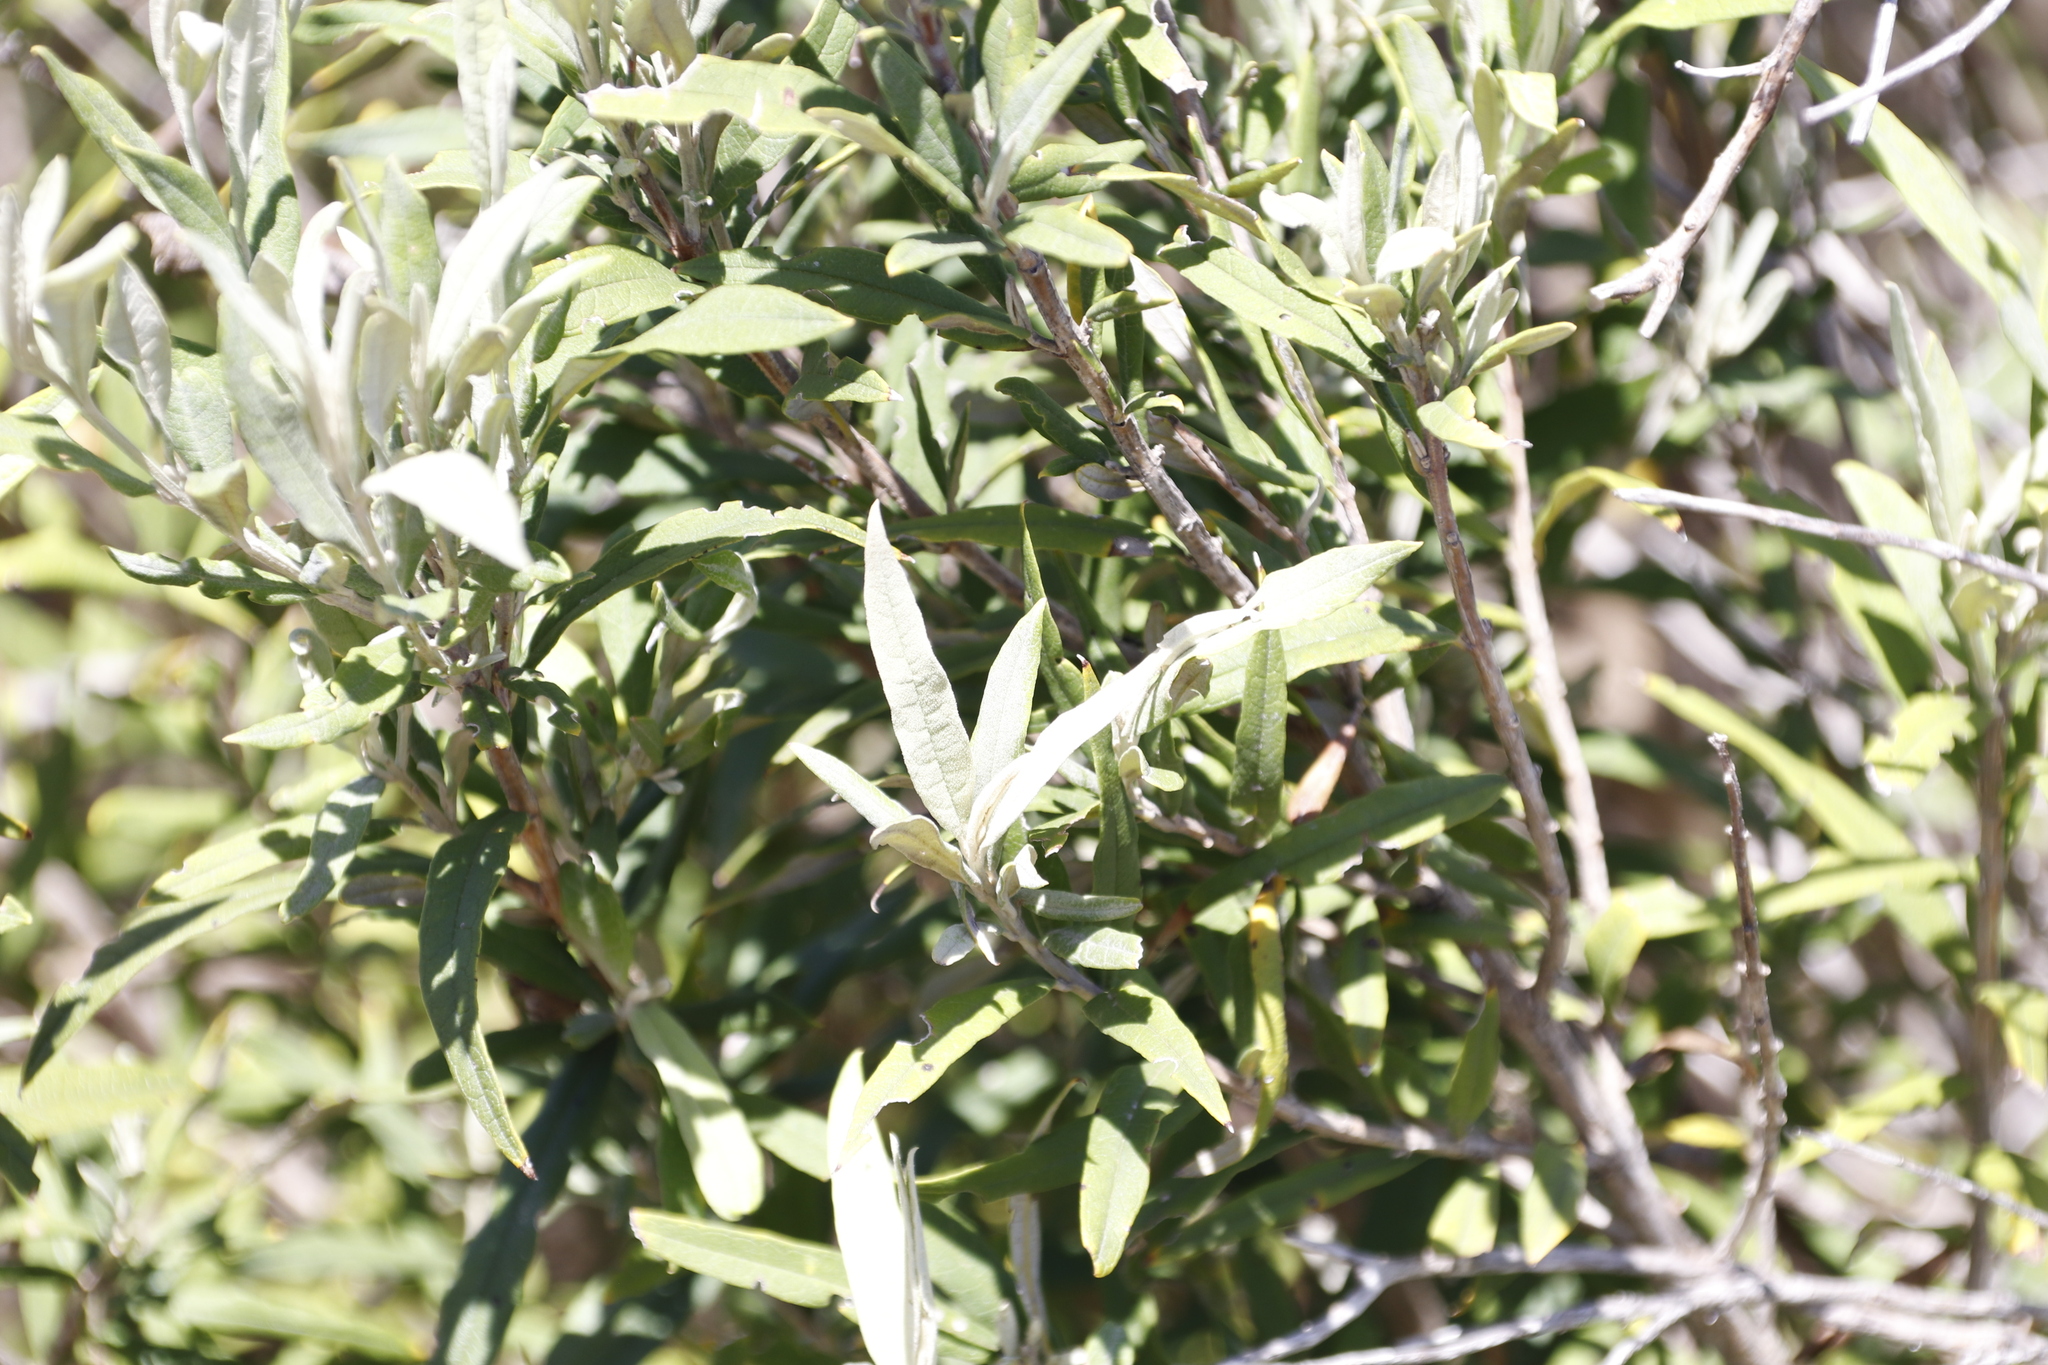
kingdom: Plantae
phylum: Tracheophyta
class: Magnoliopsida
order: Lamiales
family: Scrophulariaceae
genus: Buddleja
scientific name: Buddleja saligna
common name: False olive
